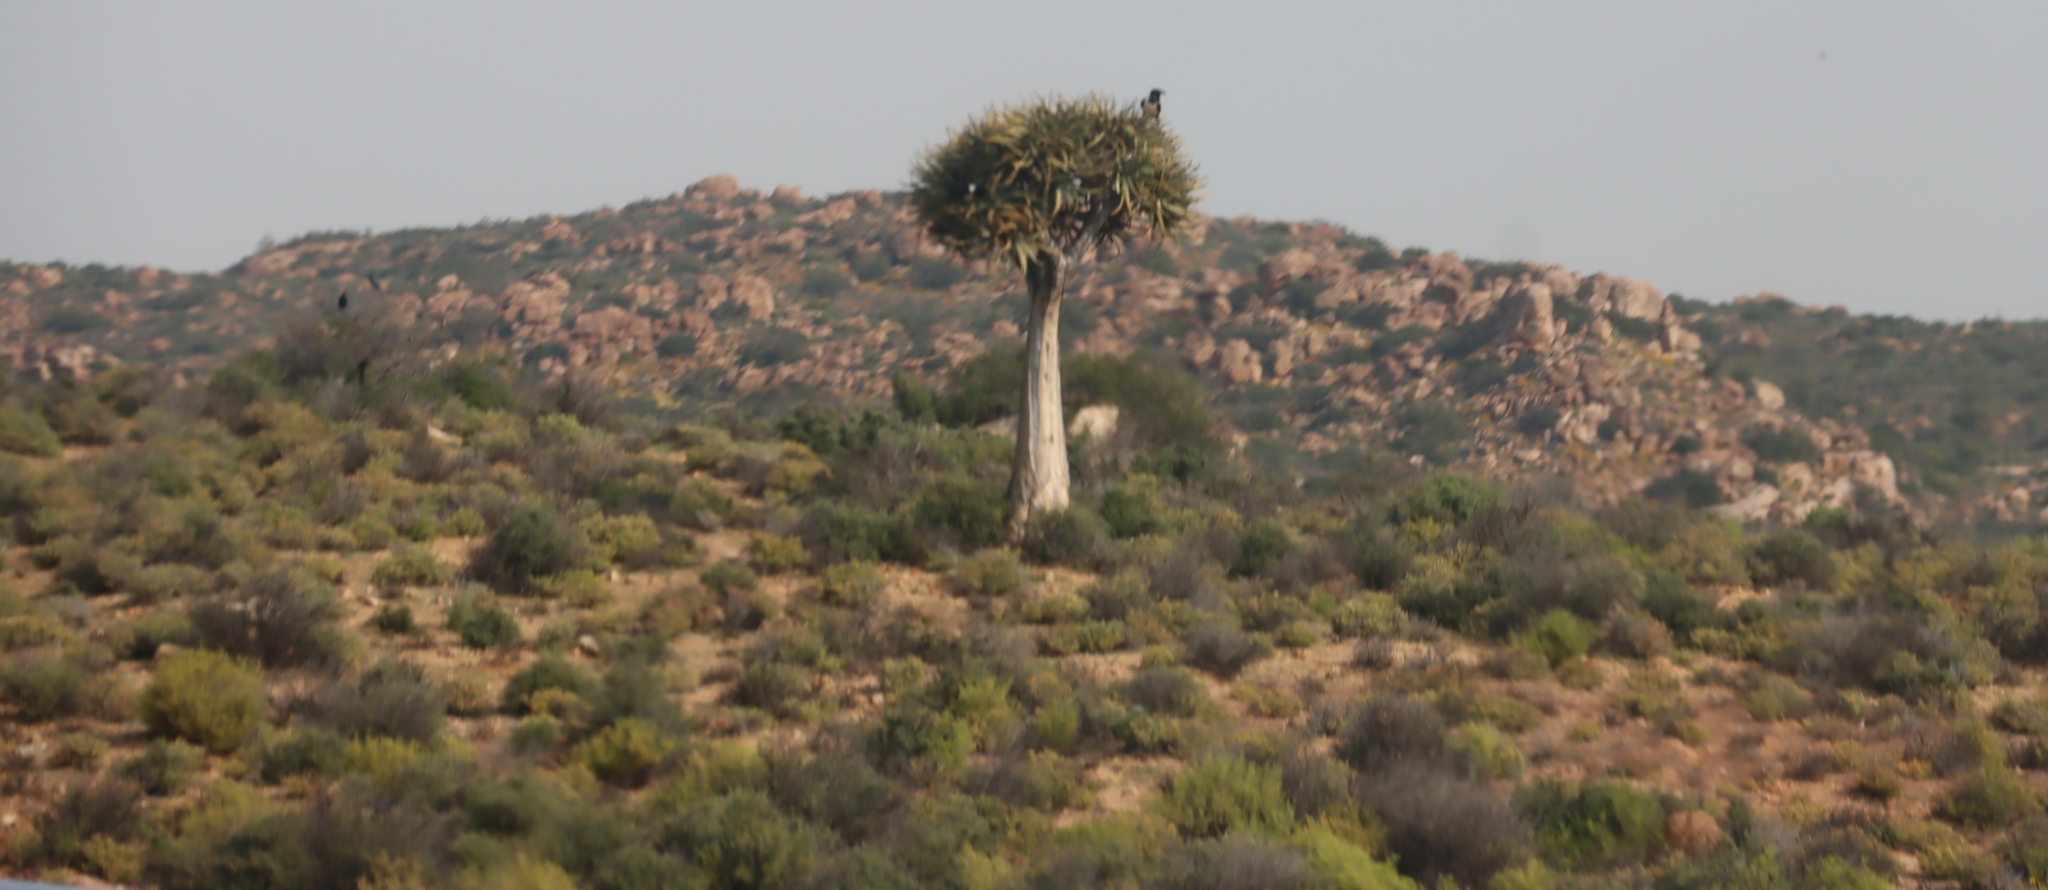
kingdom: Plantae
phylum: Tracheophyta
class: Liliopsida
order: Asparagales
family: Asphodelaceae
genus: Aloidendron
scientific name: Aloidendron dichotomum
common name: Quiver tree
